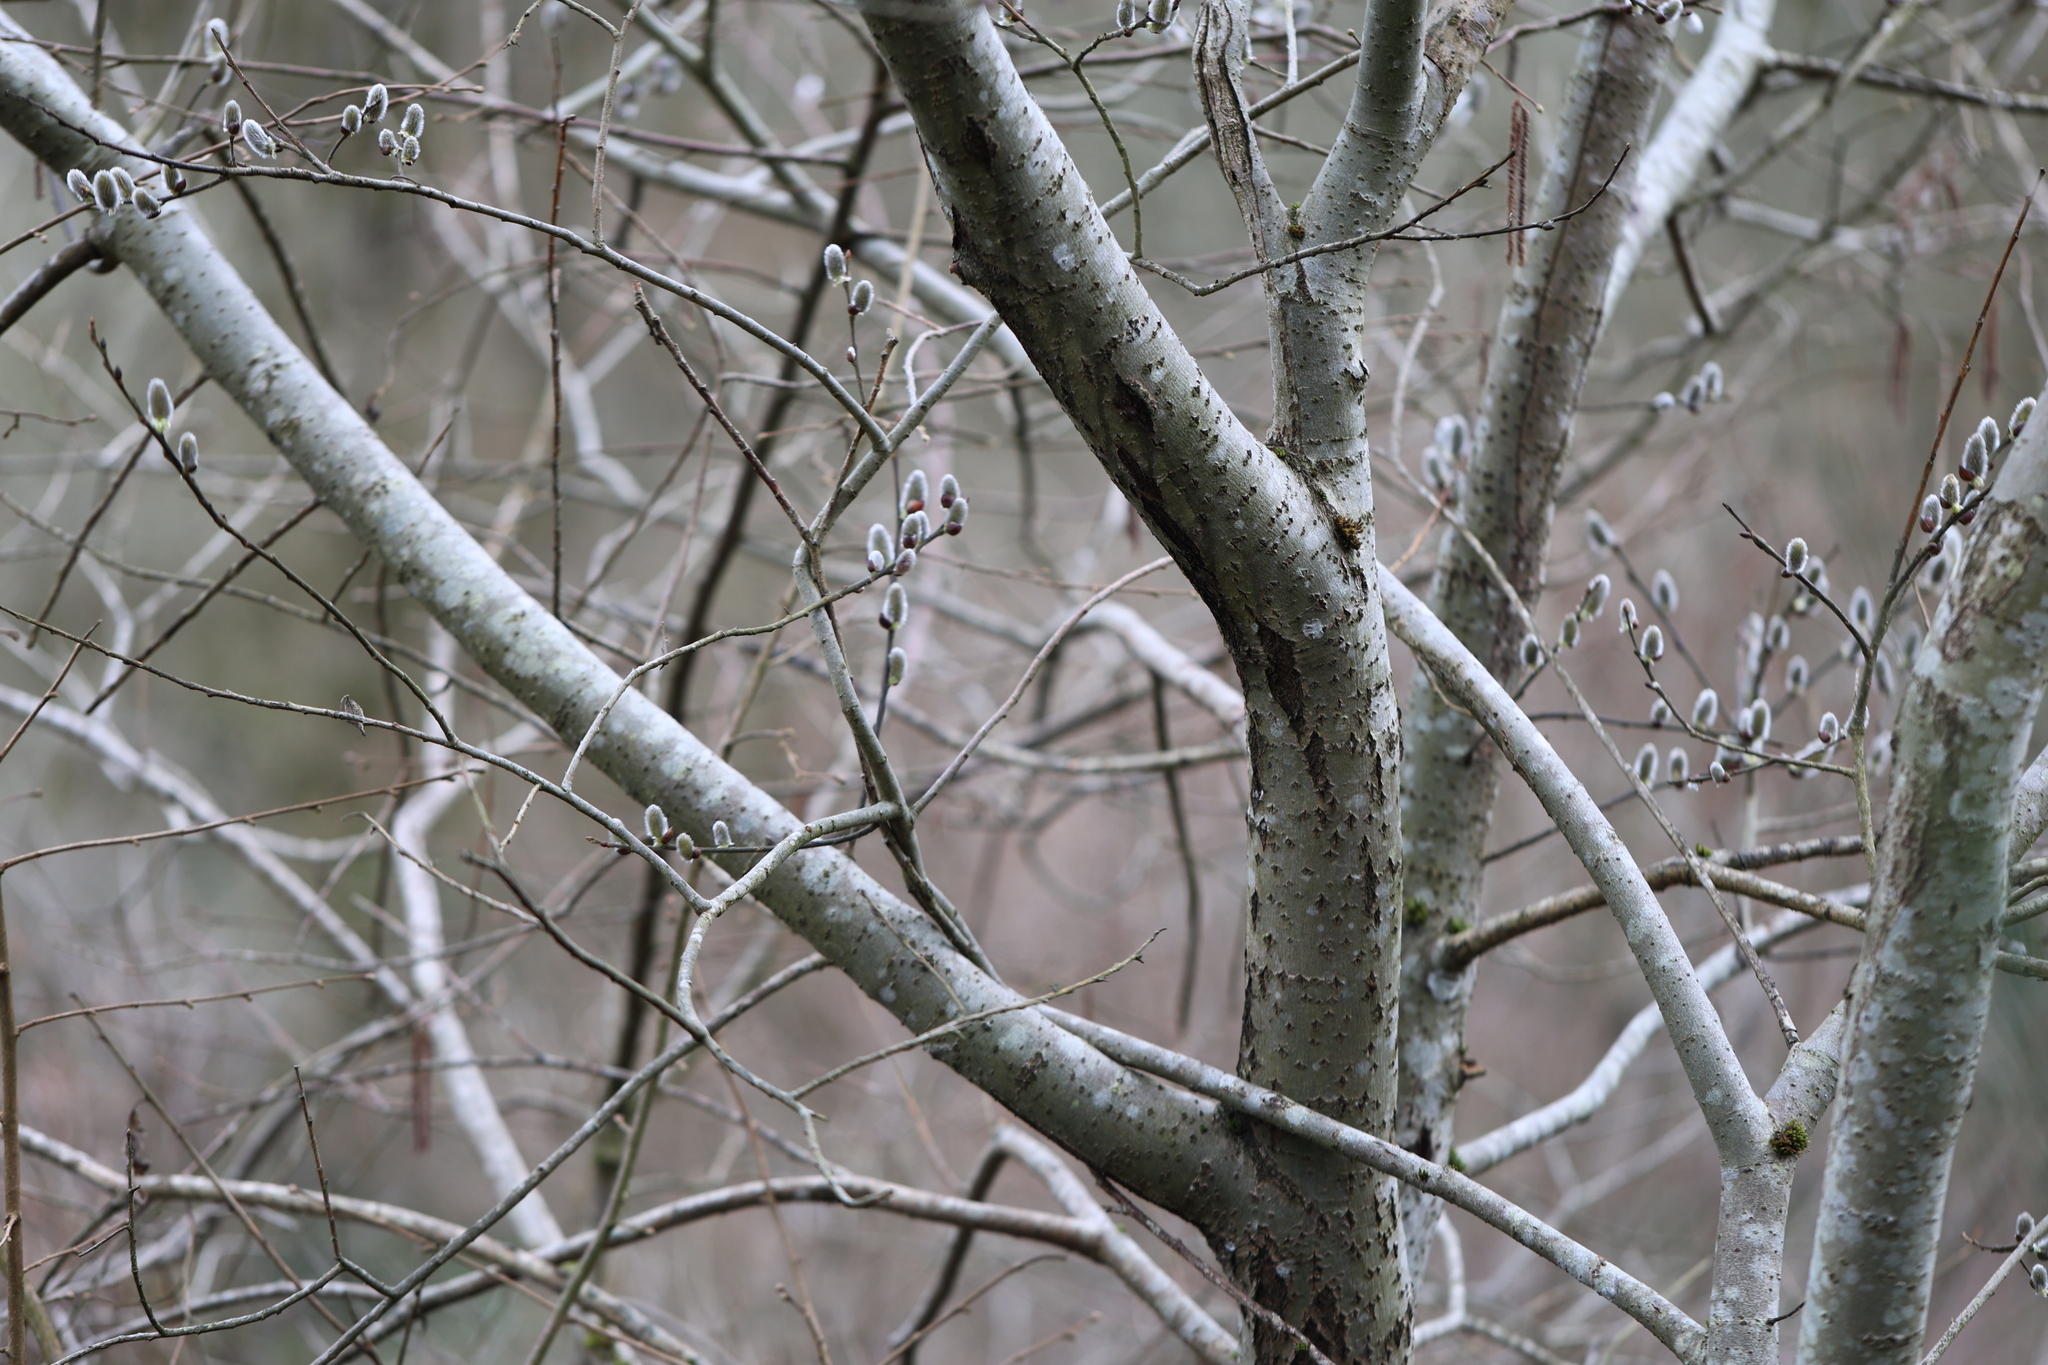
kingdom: Plantae
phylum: Tracheophyta
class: Magnoliopsida
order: Malpighiales
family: Salicaceae
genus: Salix
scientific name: Salix caprea
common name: Goat willow
